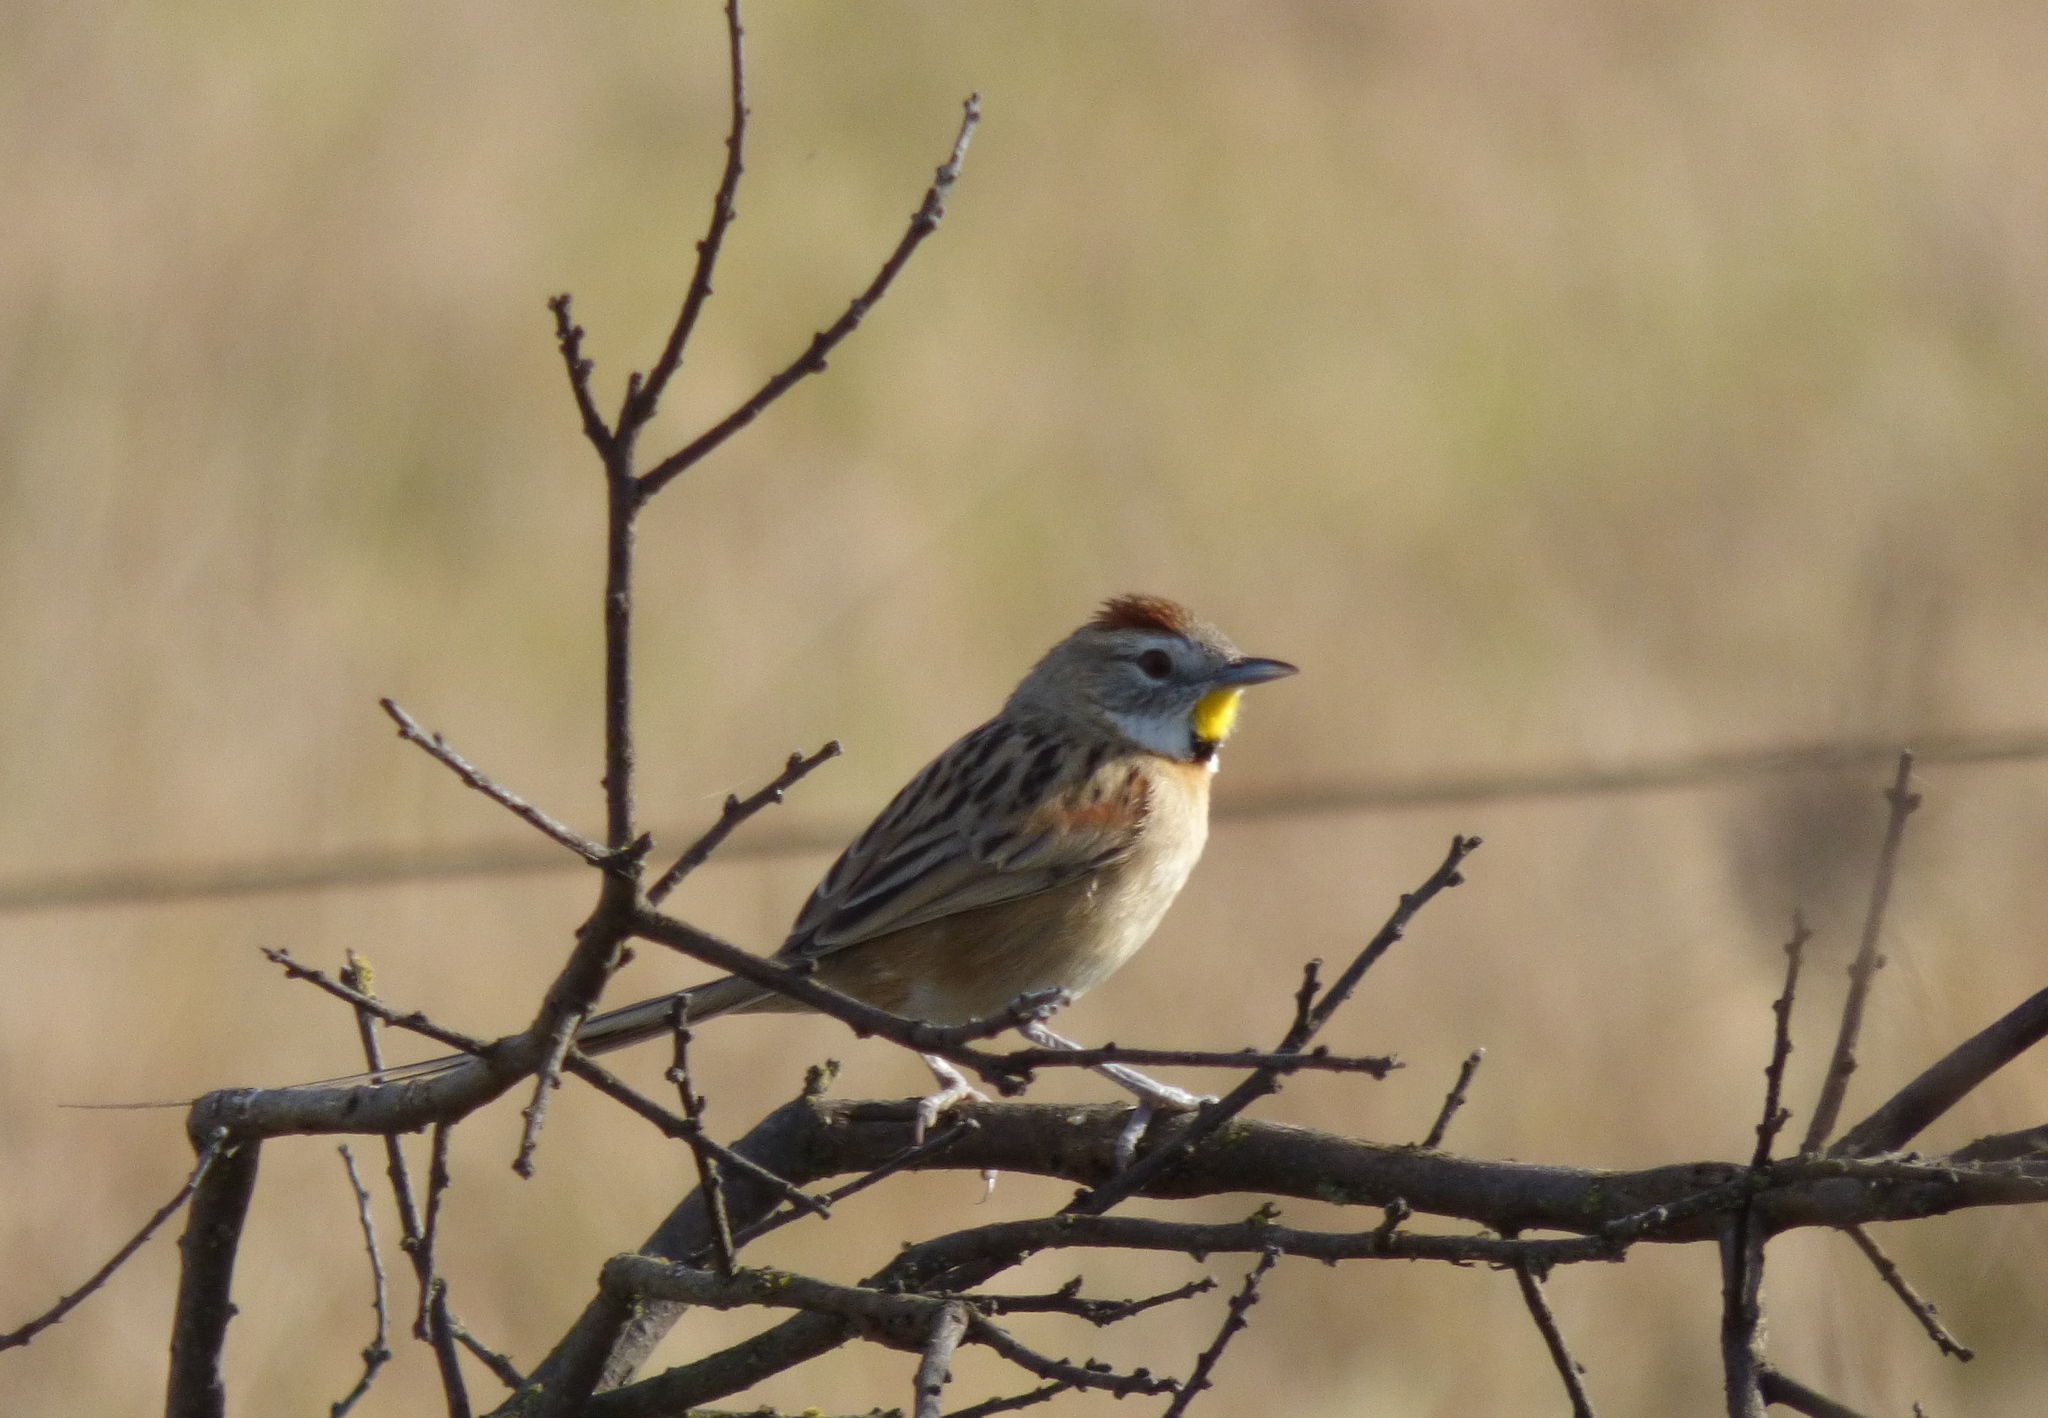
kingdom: Animalia
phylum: Chordata
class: Aves
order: Passeriformes
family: Furnariidae
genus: Schoeniophylax
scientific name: Schoeniophylax phryganophilus
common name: Chotoy spinetail
